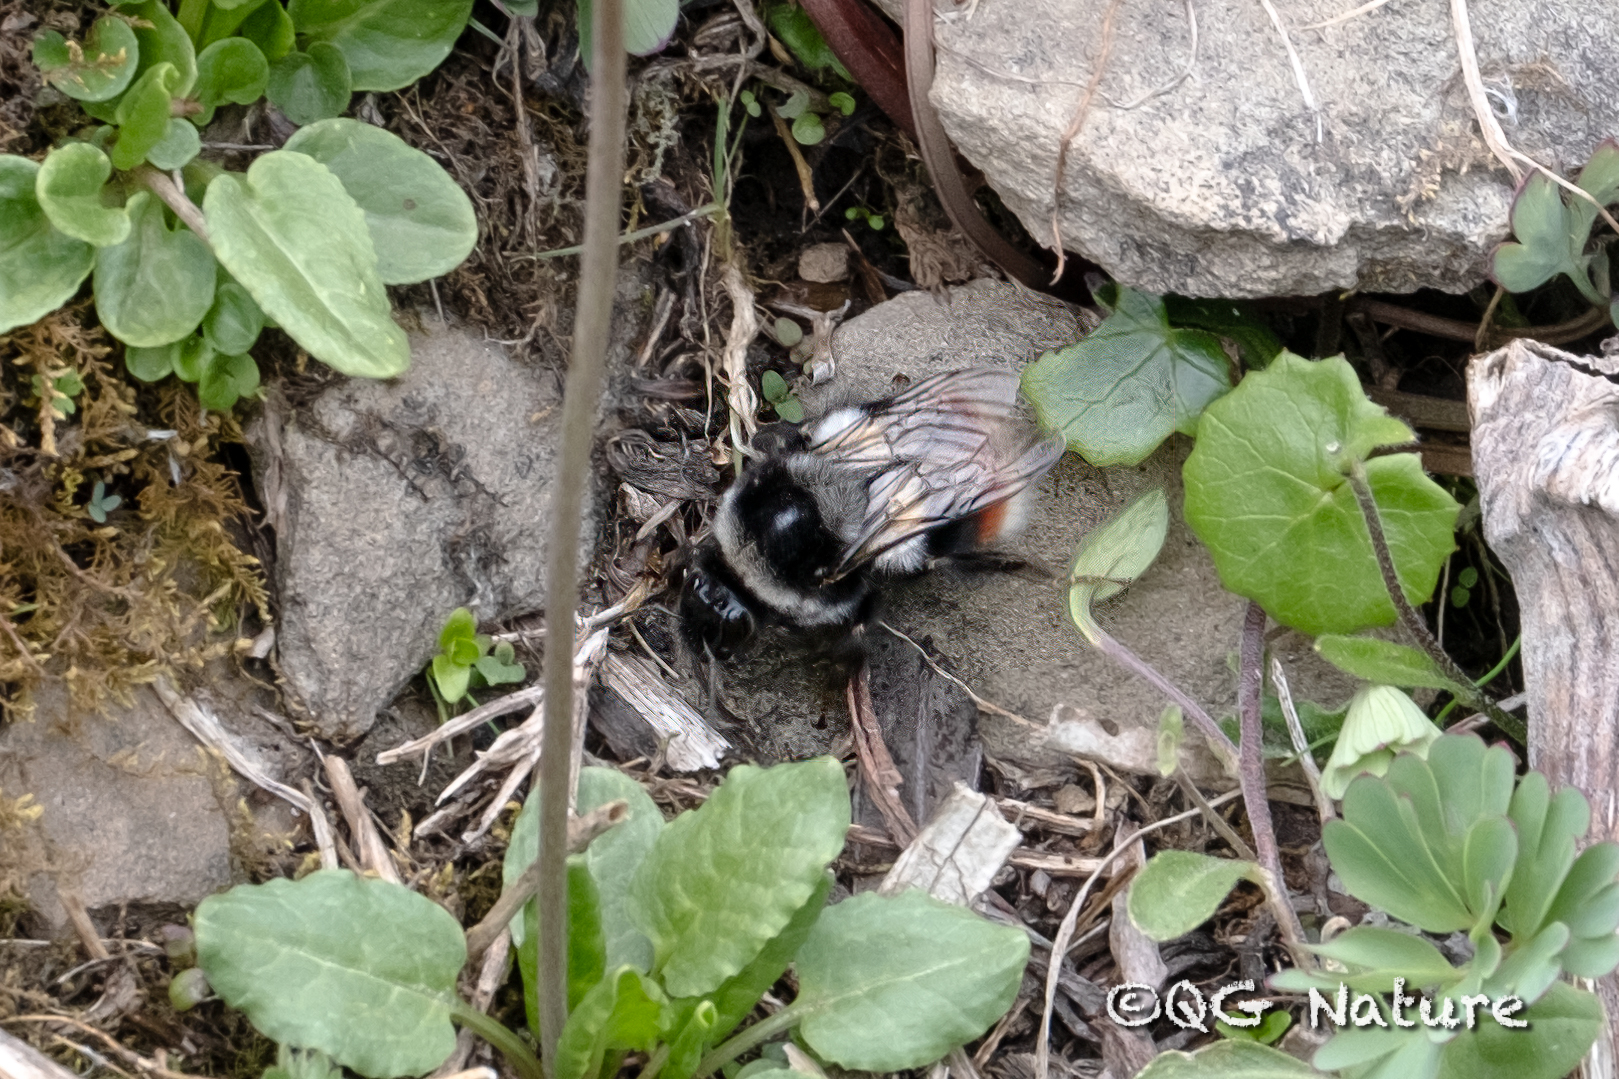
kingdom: Animalia
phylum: Arthropoda
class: Insecta
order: Hymenoptera
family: Apidae
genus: Bombus
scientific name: Bombus ladakhensis
